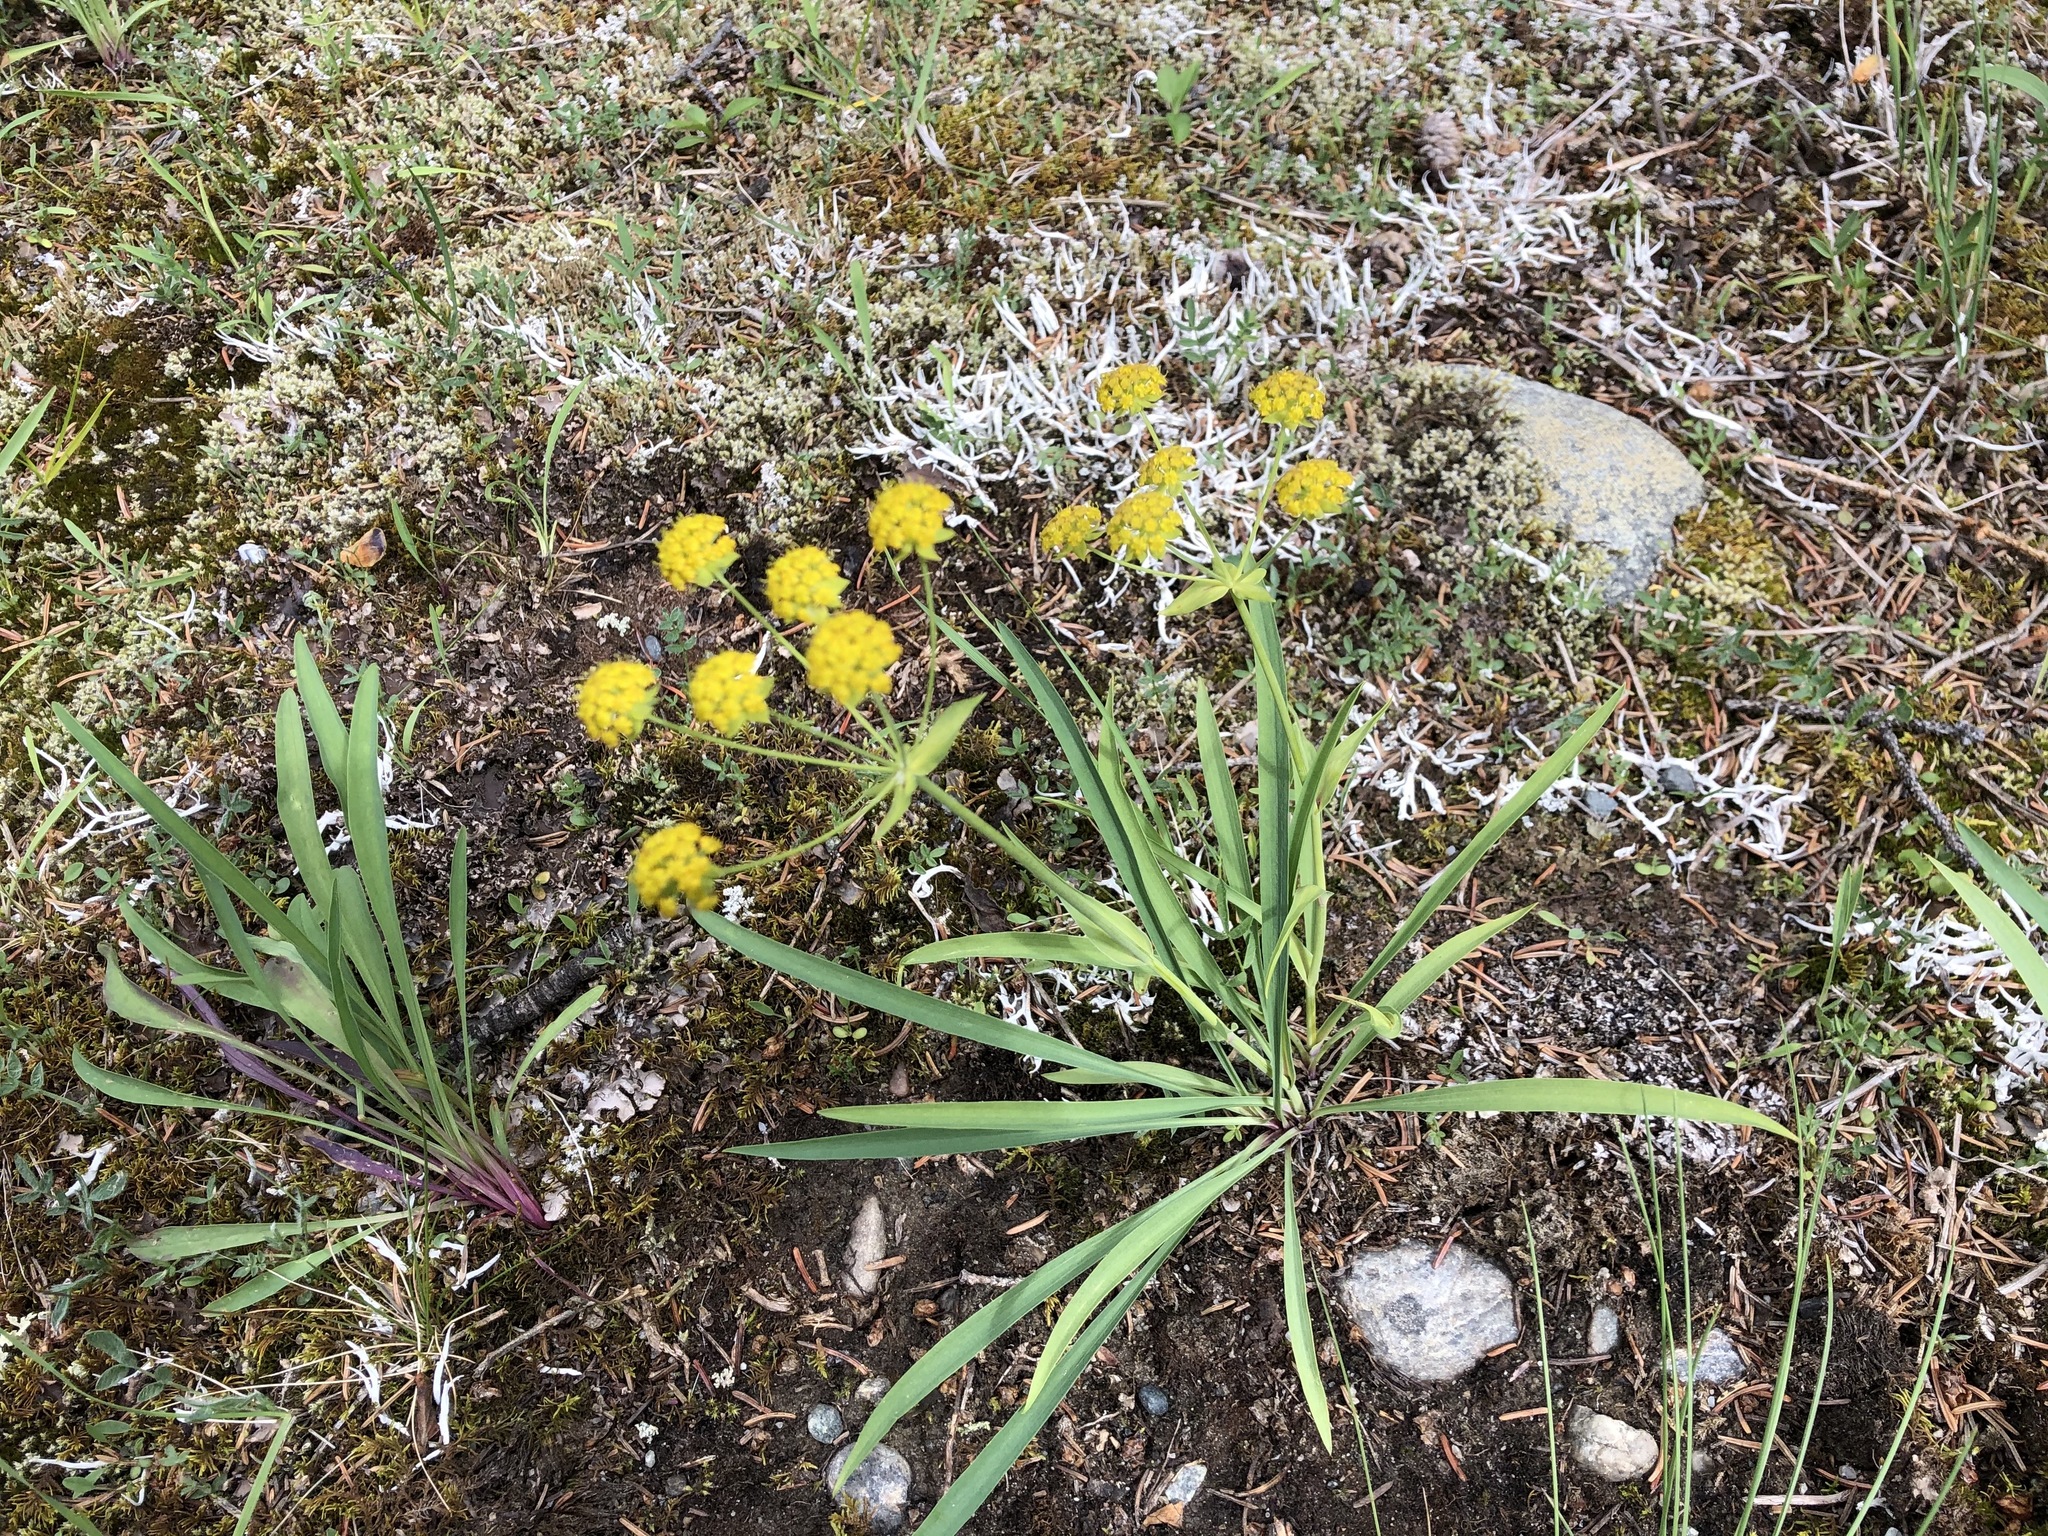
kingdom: Plantae
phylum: Tracheophyta
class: Magnoliopsida
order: Apiales
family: Apiaceae
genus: Bupleurum
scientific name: Bupleurum americanum
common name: American thoroughwax
